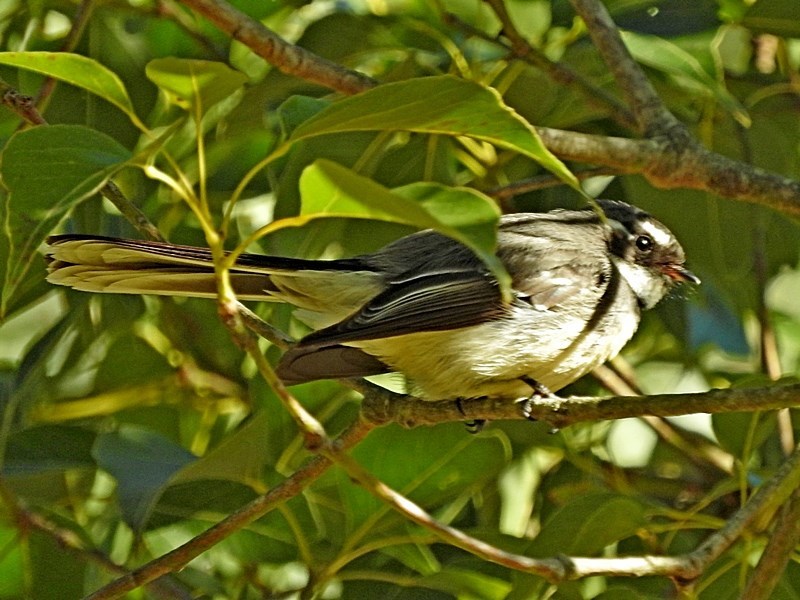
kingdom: Animalia
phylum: Chordata
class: Aves
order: Passeriformes
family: Rhipiduridae
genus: Rhipidura
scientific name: Rhipidura albiscapa
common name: Grey fantail
